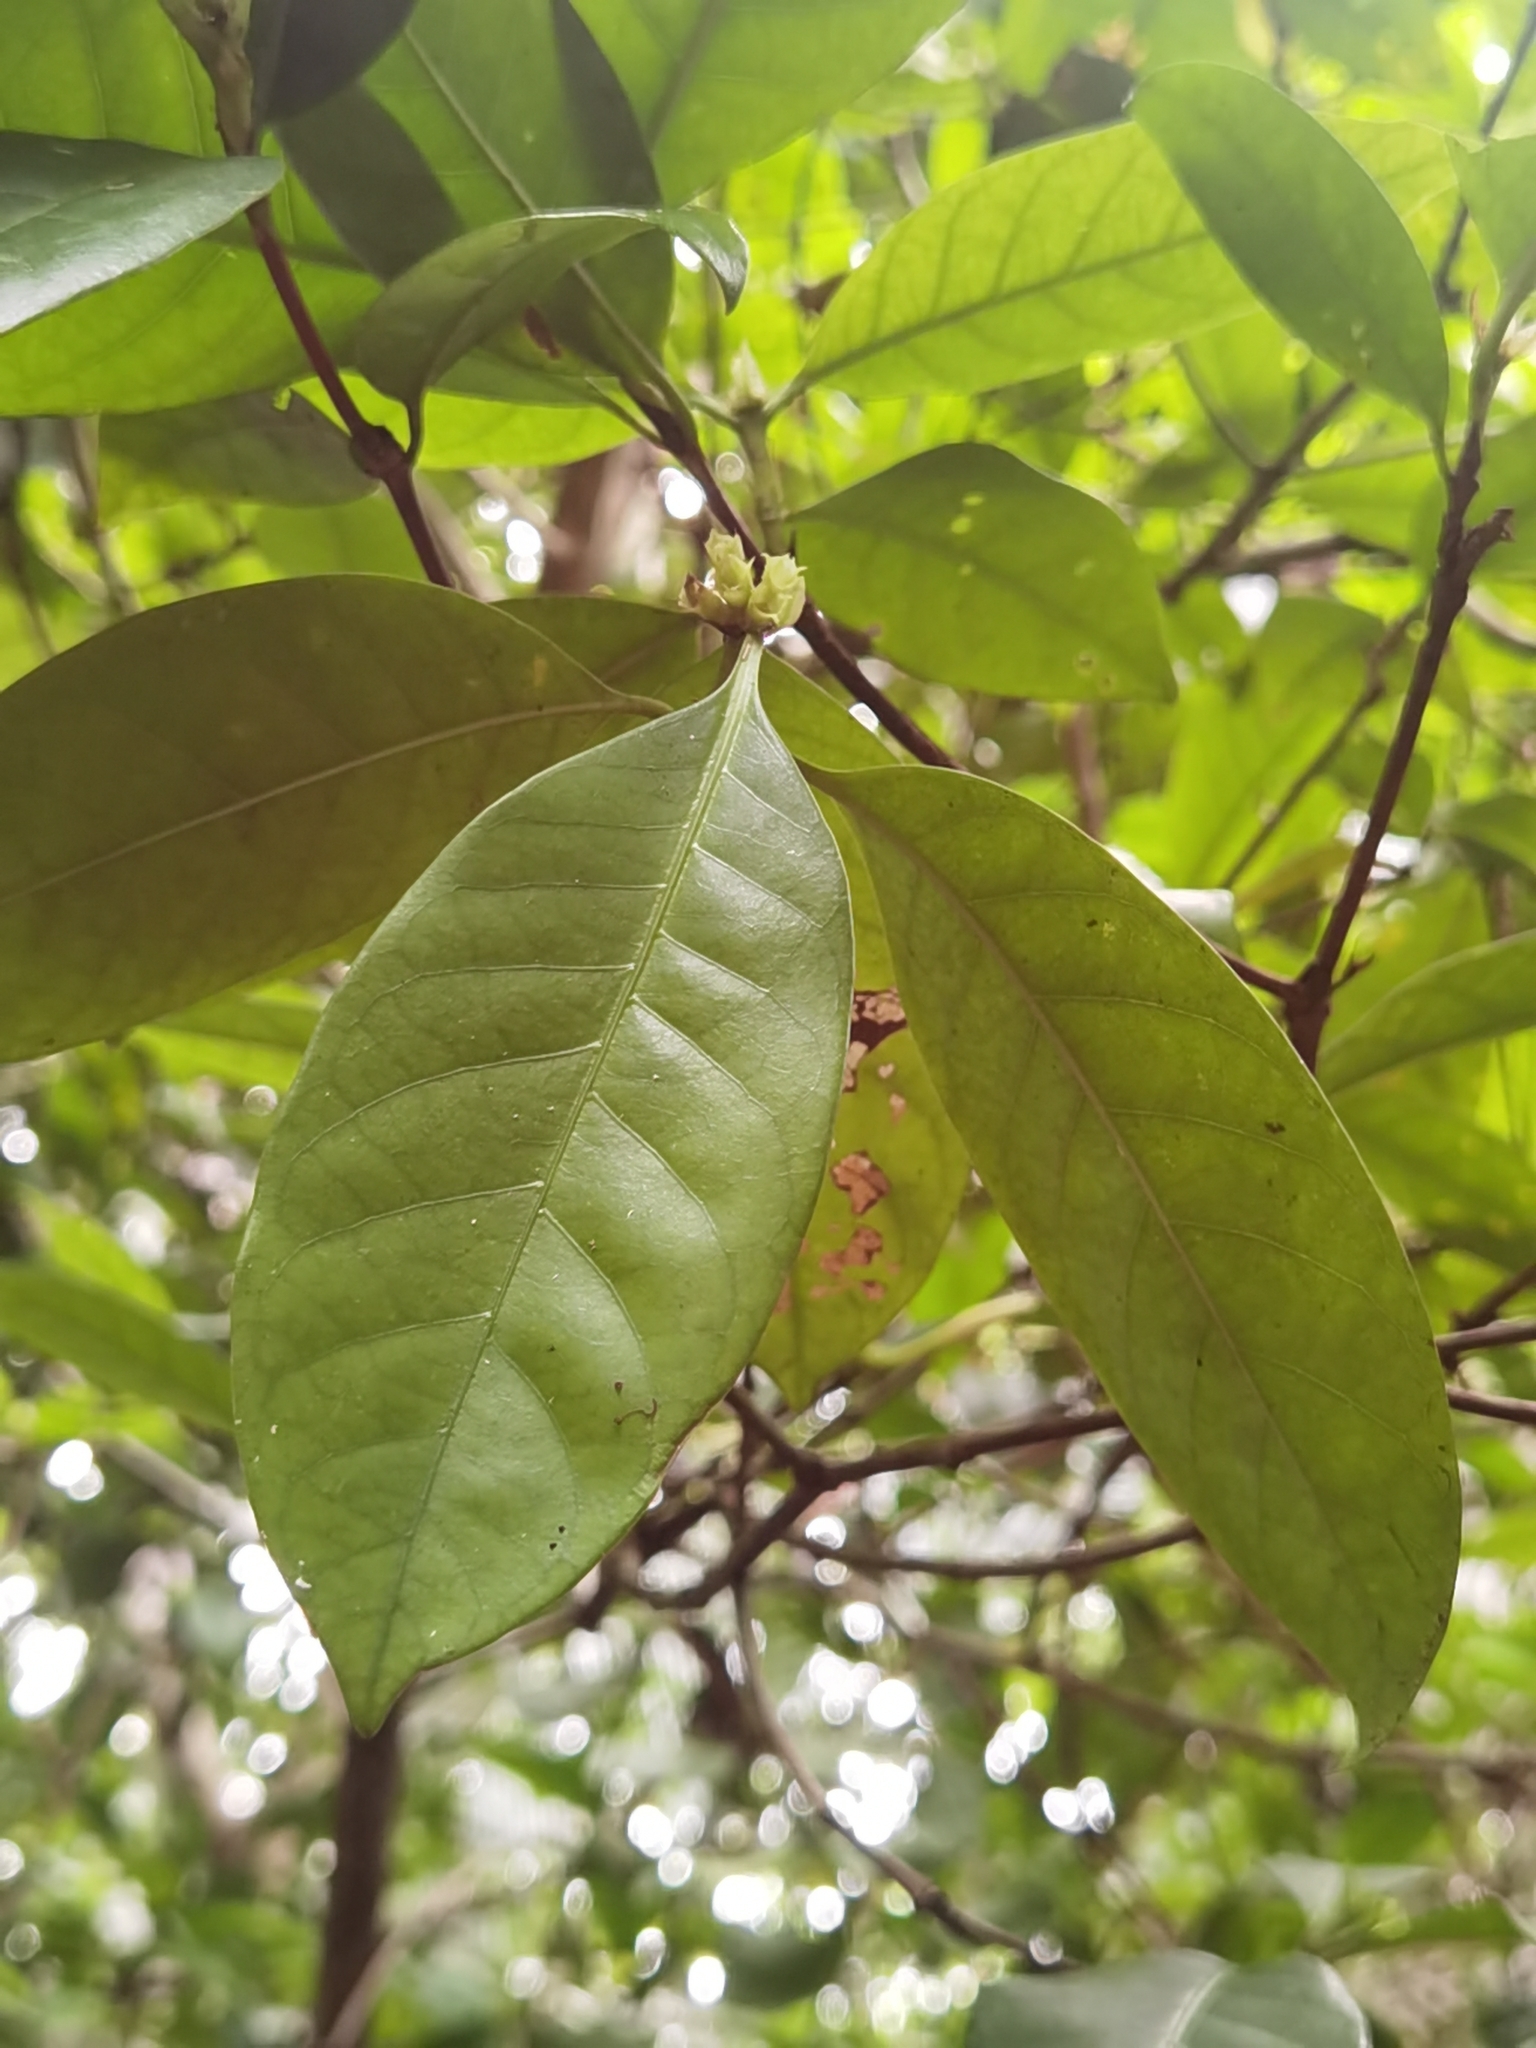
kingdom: Plantae
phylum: Tracheophyta
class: Magnoliopsida
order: Gentianales
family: Rubiaceae
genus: Alibertia
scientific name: Alibertia edulis
